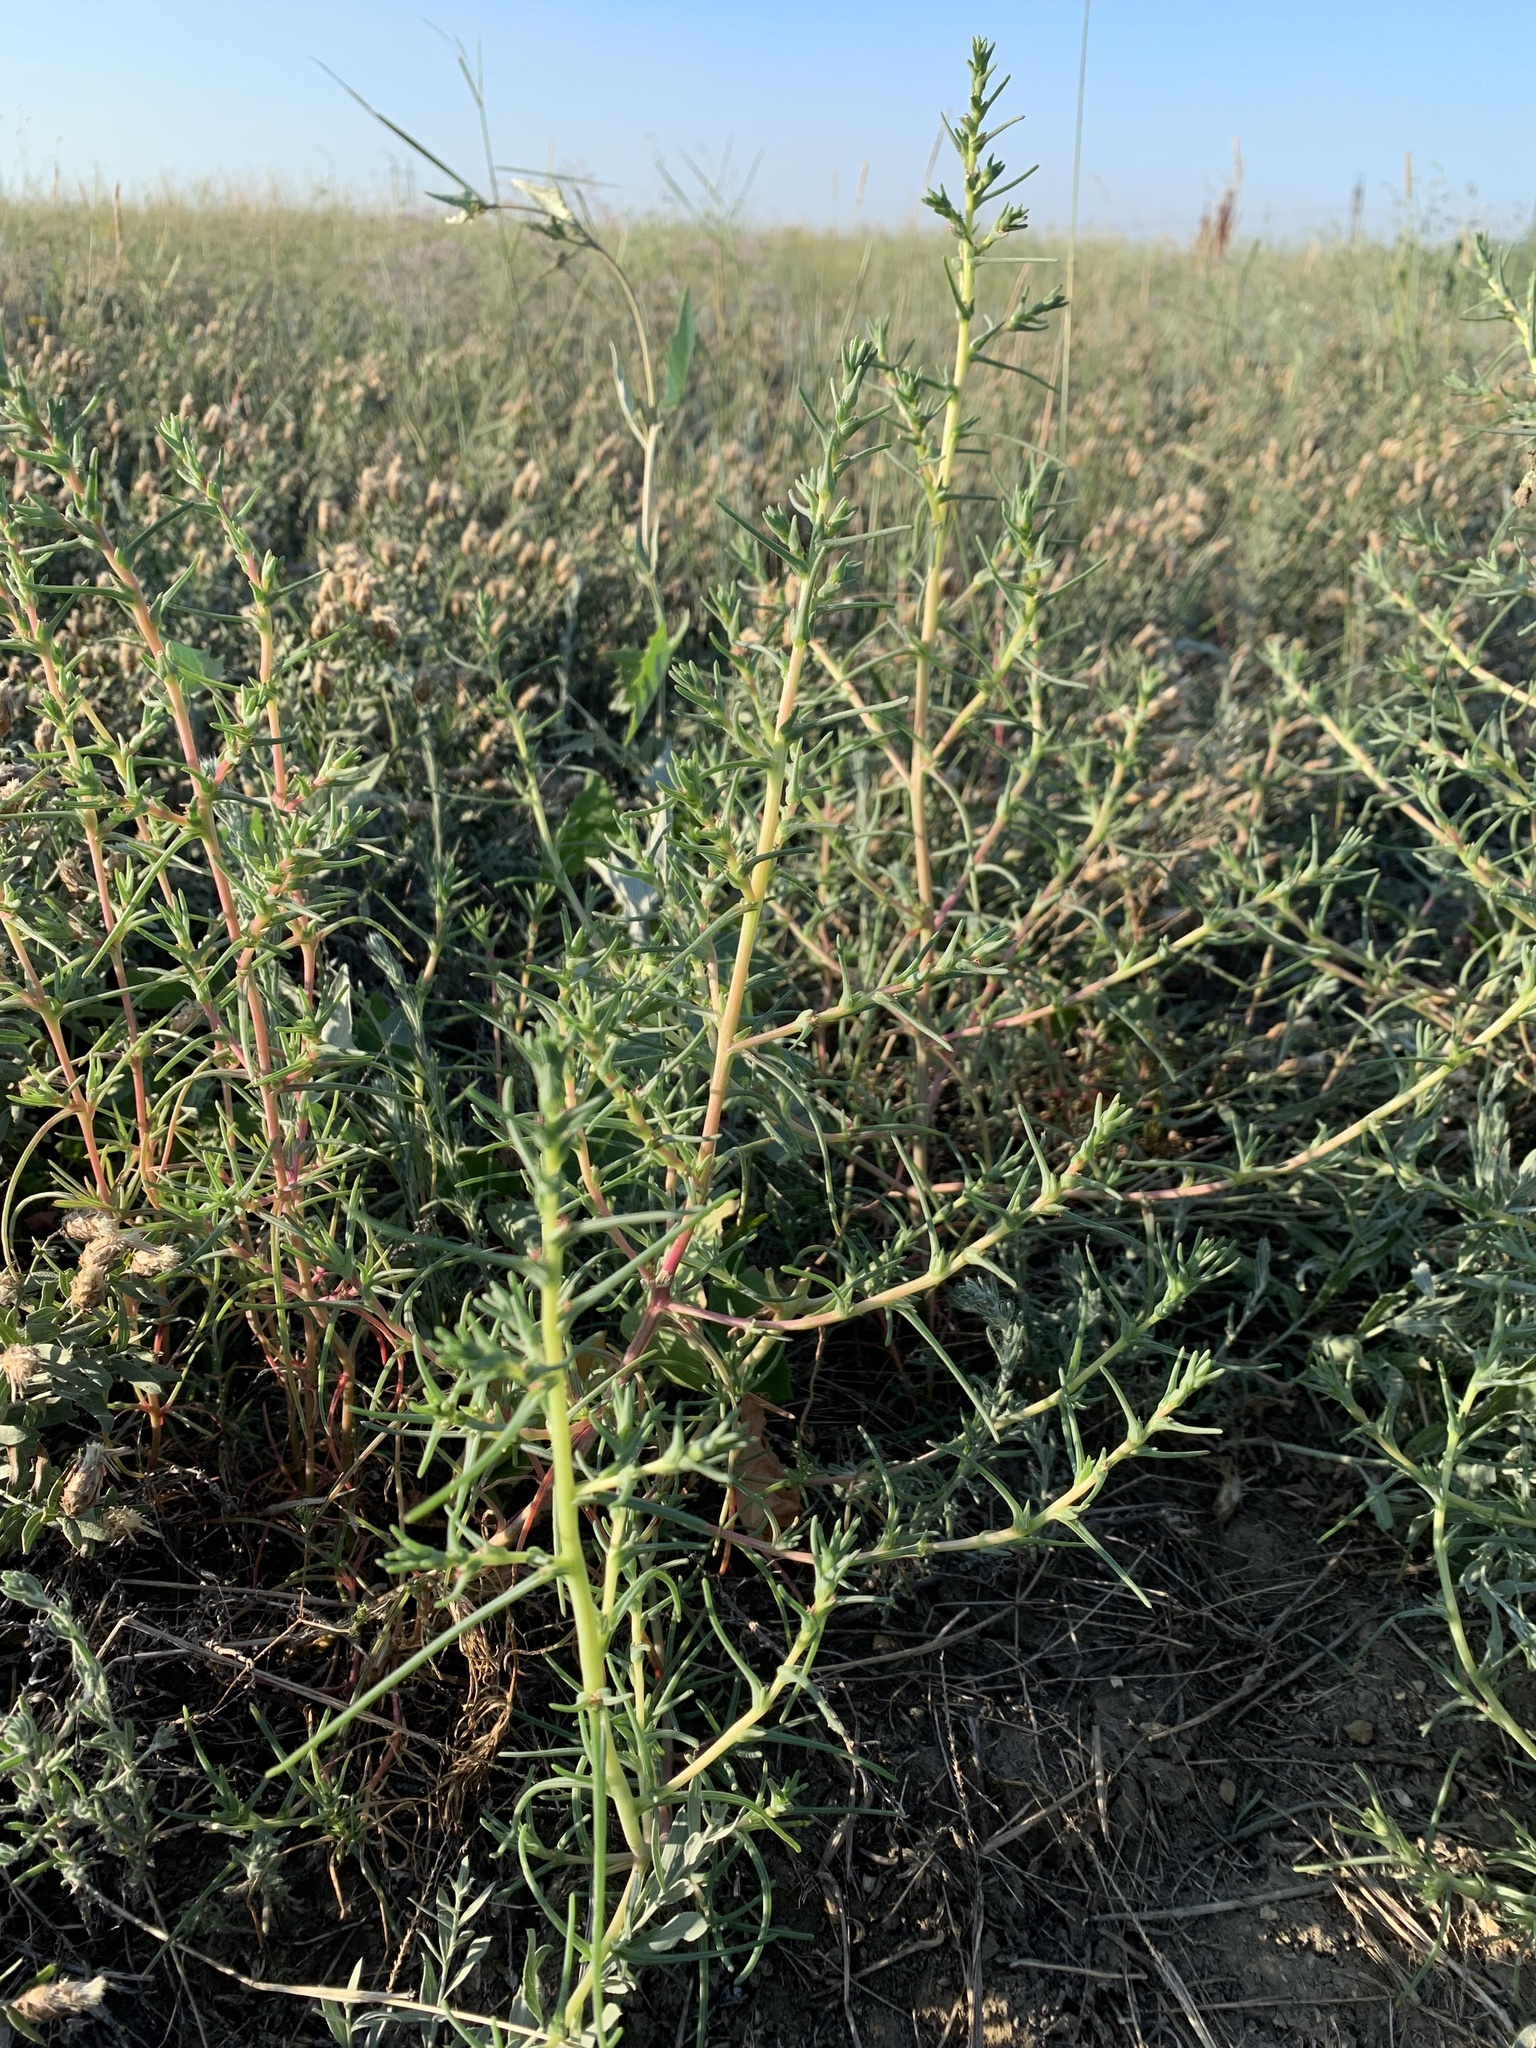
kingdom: Plantae
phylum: Tracheophyta
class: Magnoliopsida
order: Caryophyllales
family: Amaranthaceae
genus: Salsola
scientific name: Salsola soda
